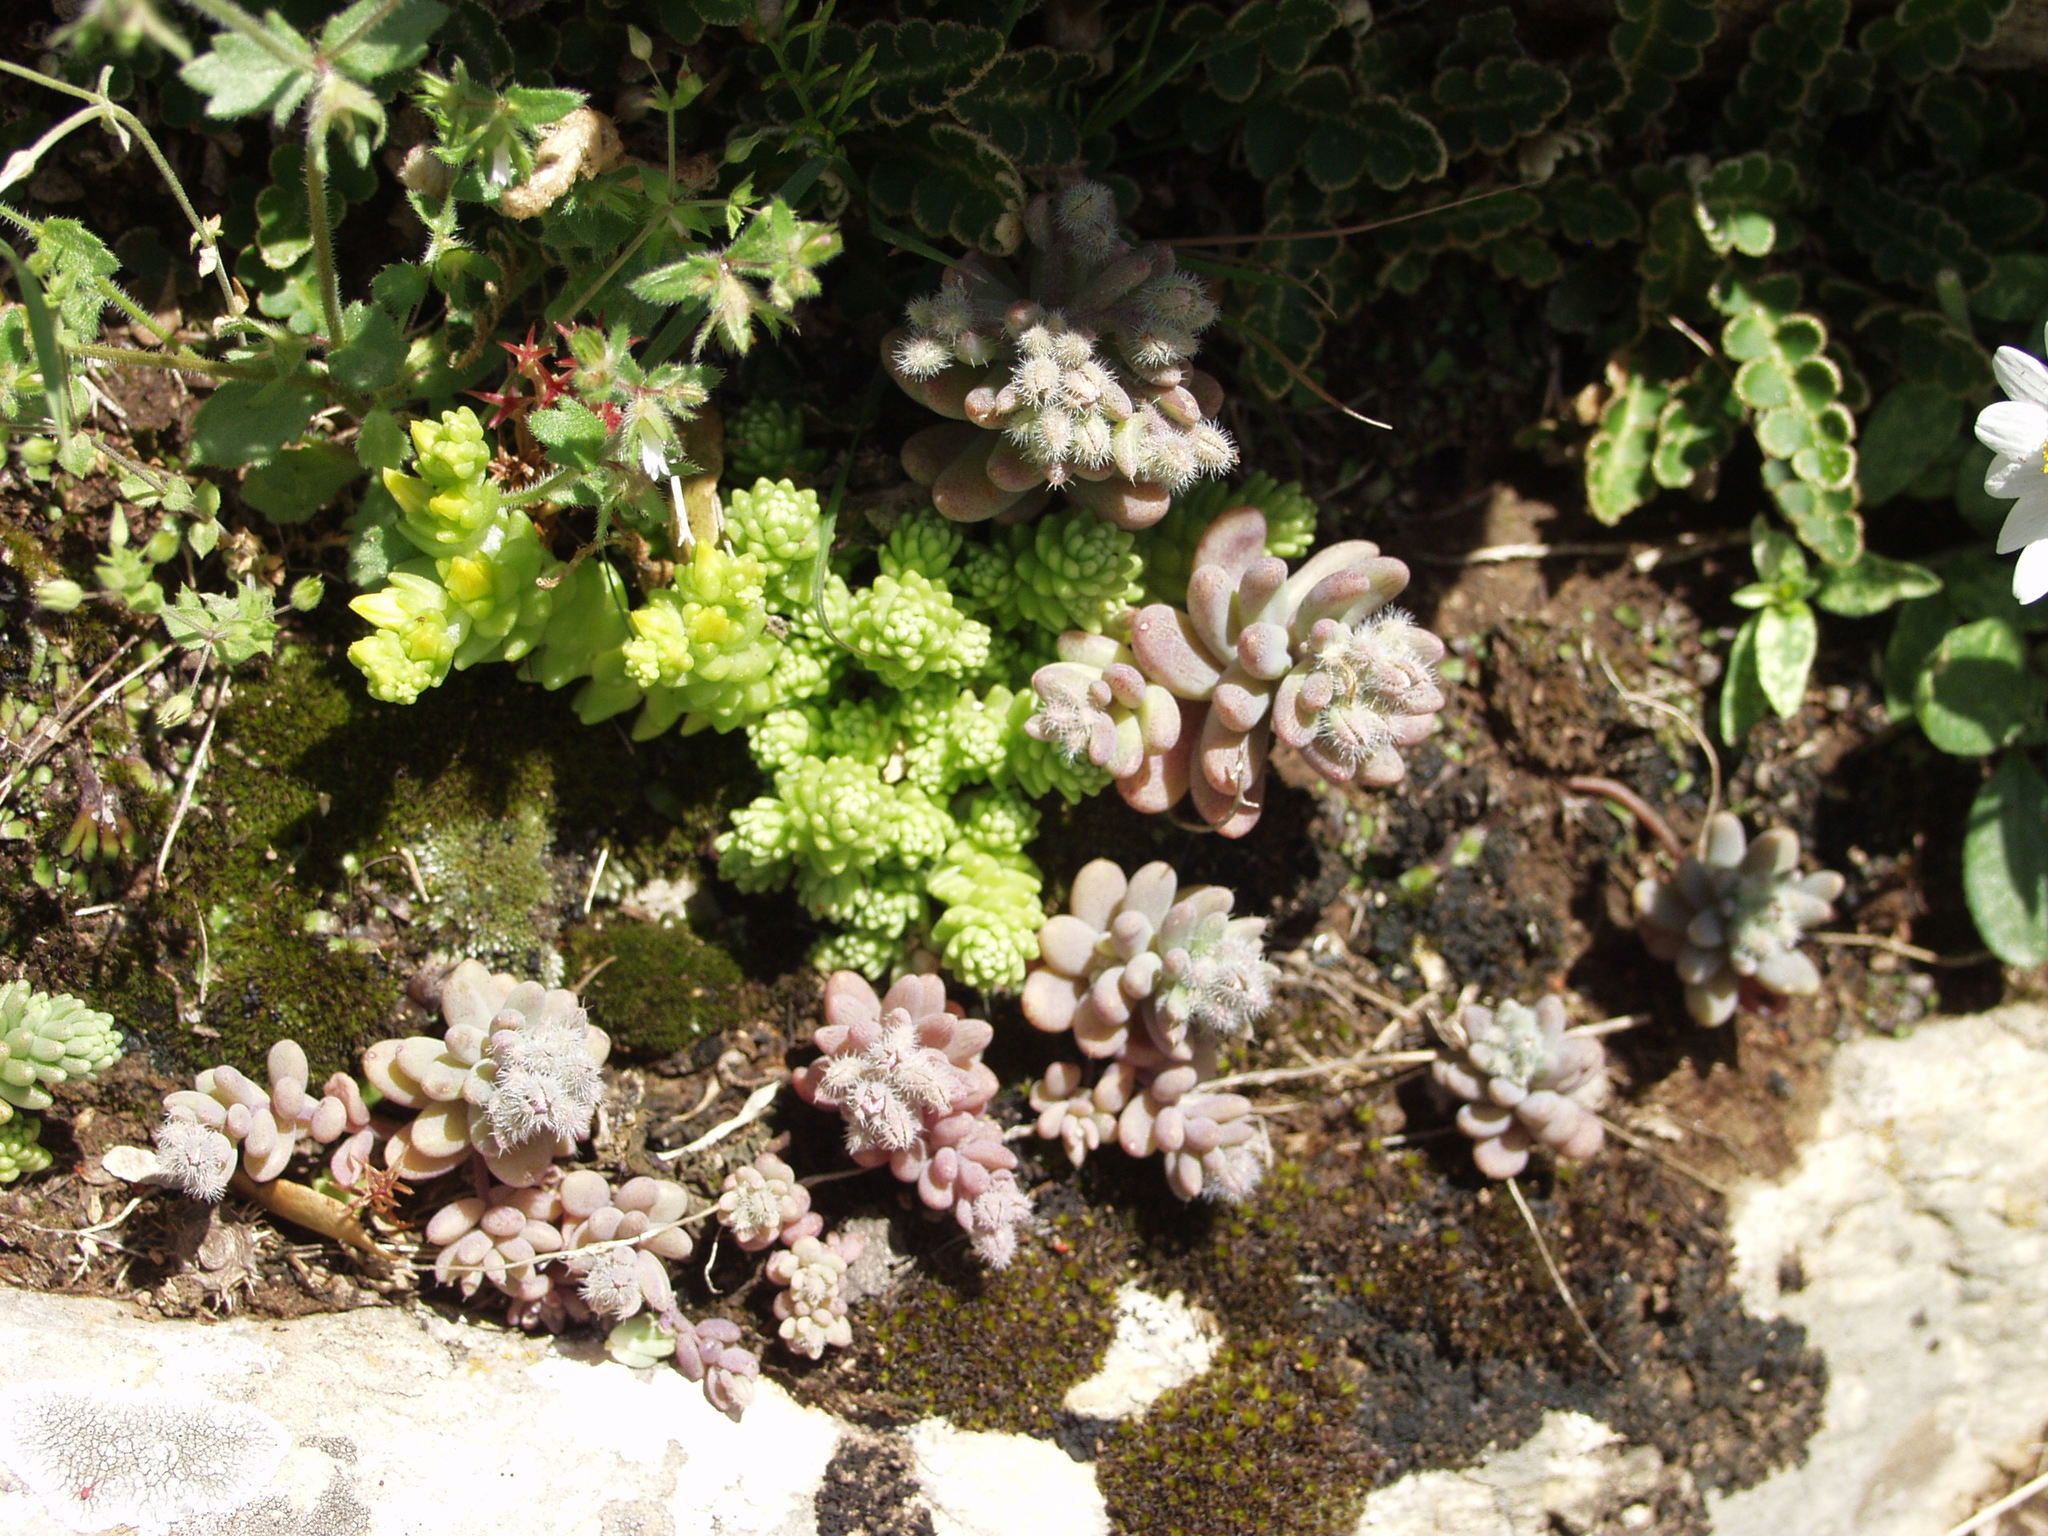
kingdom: Plantae
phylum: Tracheophyta
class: Magnoliopsida
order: Saxifragales
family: Crassulaceae
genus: Sedum
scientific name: Sedum mucizonia
